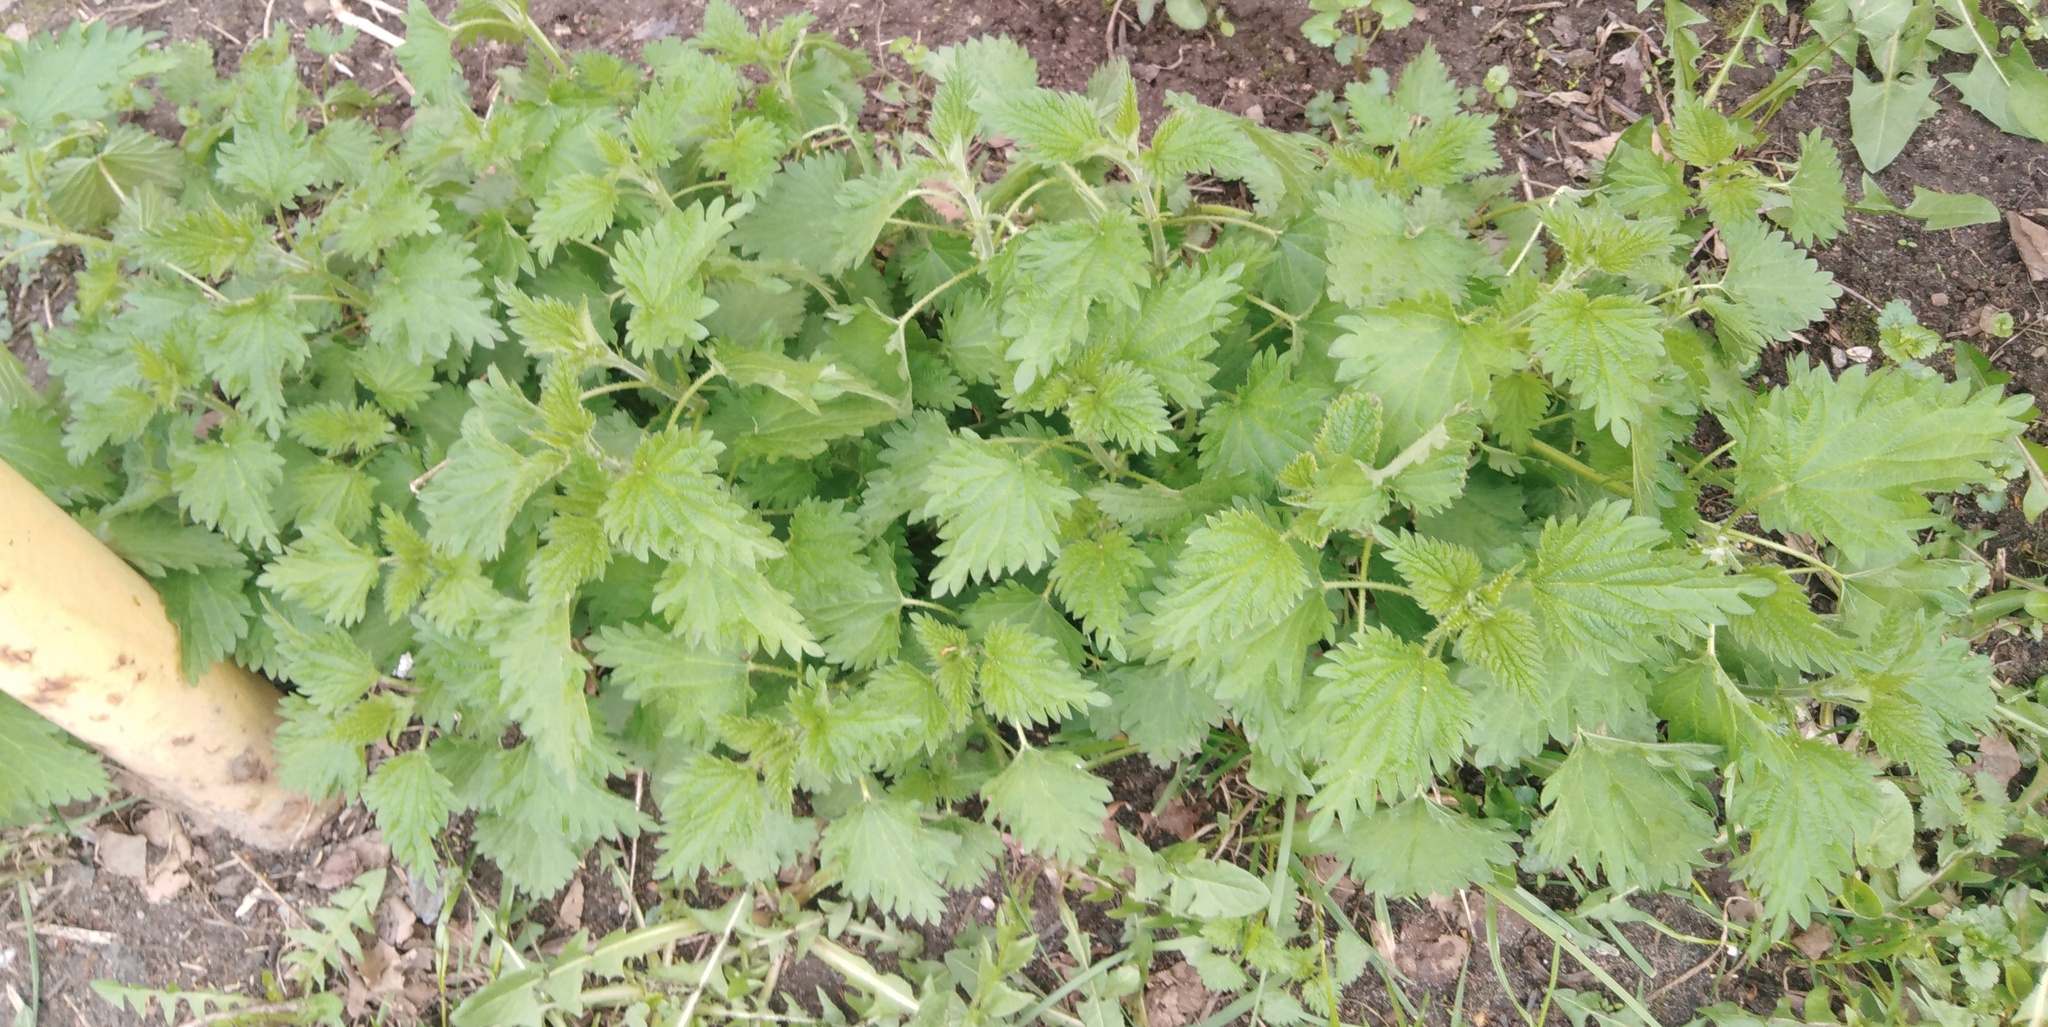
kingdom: Plantae
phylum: Tracheophyta
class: Magnoliopsida
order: Rosales
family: Urticaceae
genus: Urtica
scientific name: Urtica dioica
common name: Common nettle
